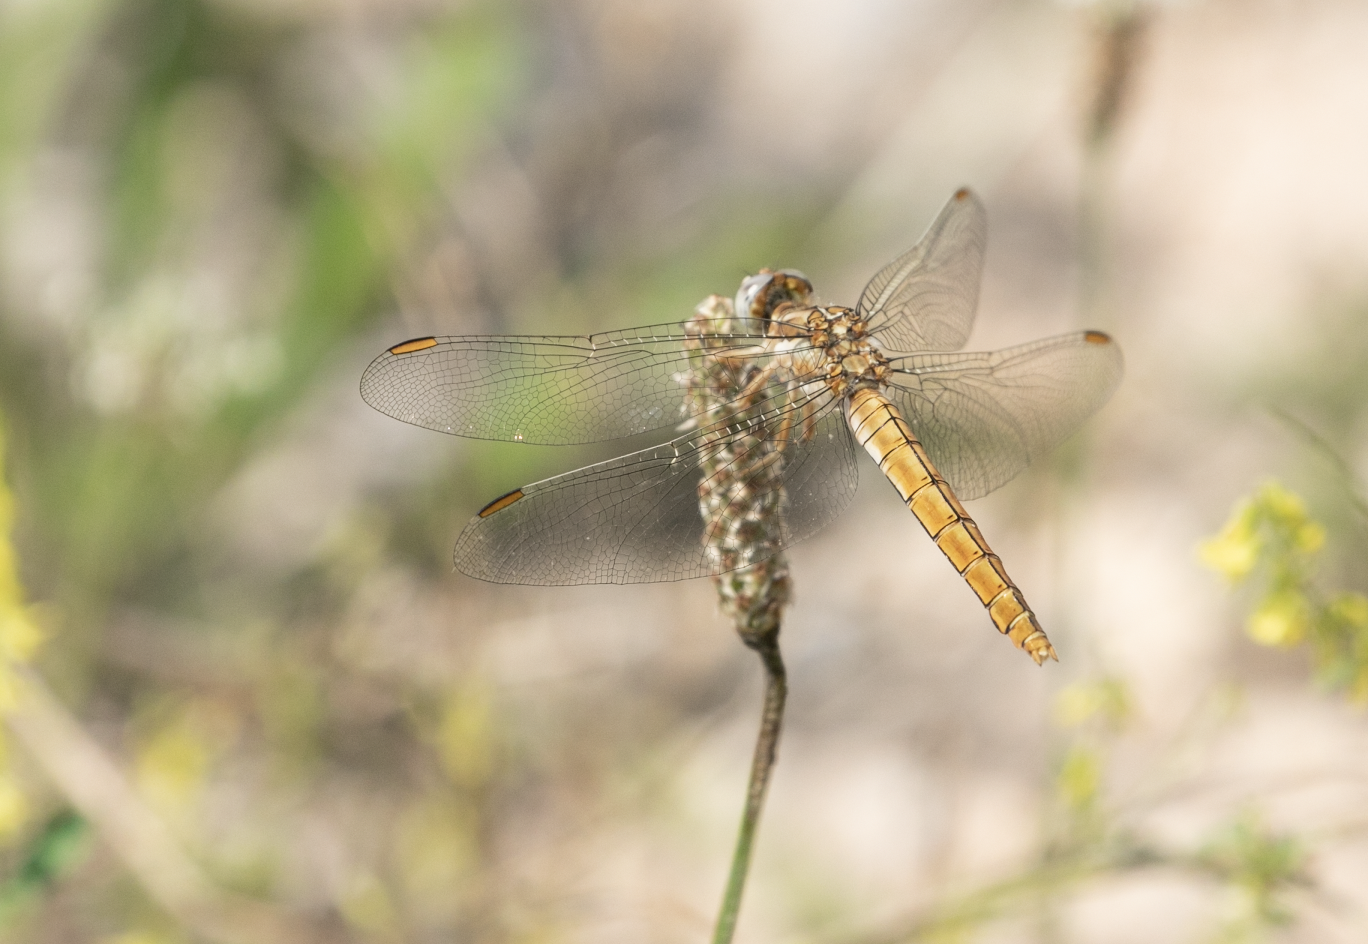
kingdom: Animalia
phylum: Arthropoda
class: Insecta
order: Odonata
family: Libellulidae
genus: Orthetrum
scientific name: Orthetrum brunneum
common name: Southern skimmer
